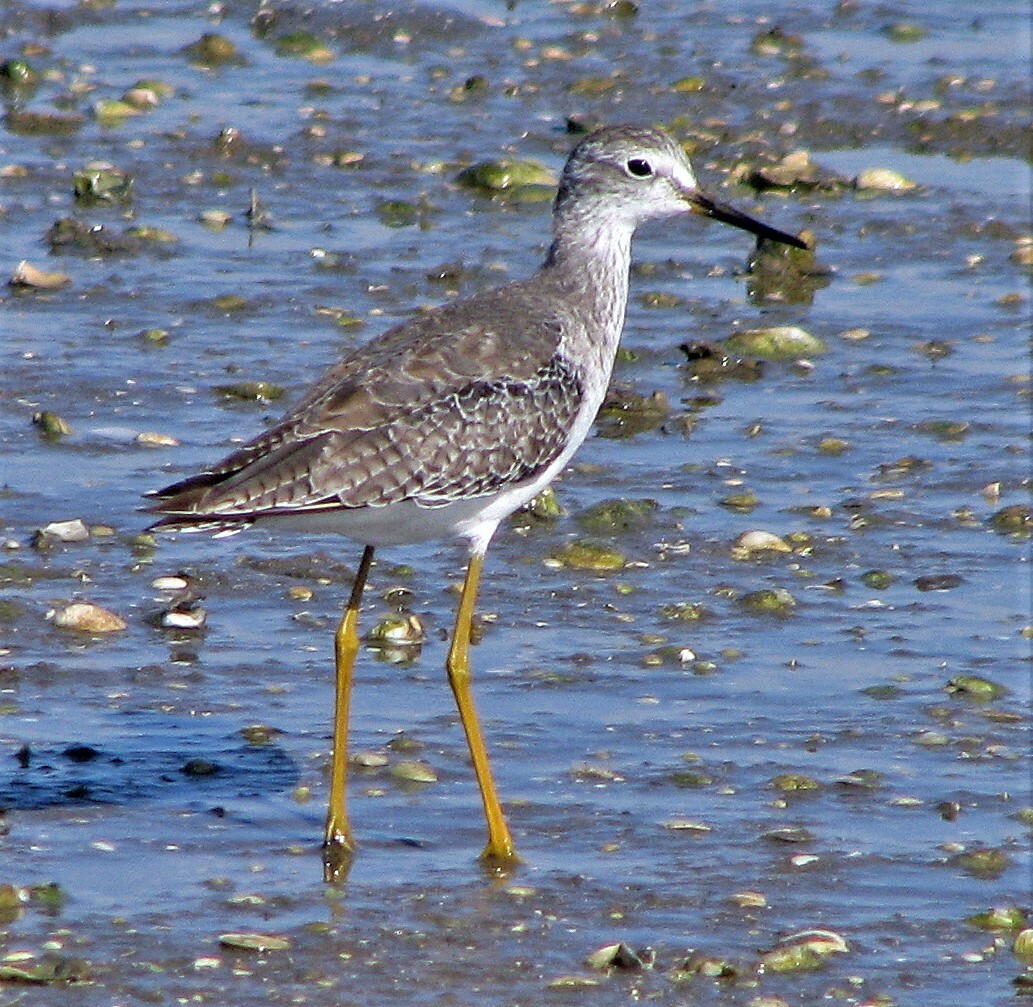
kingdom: Animalia
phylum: Chordata
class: Aves
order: Charadriiformes
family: Scolopacidae
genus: Tringa
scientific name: Tringa flavipes
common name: Lesser yellowlegs
